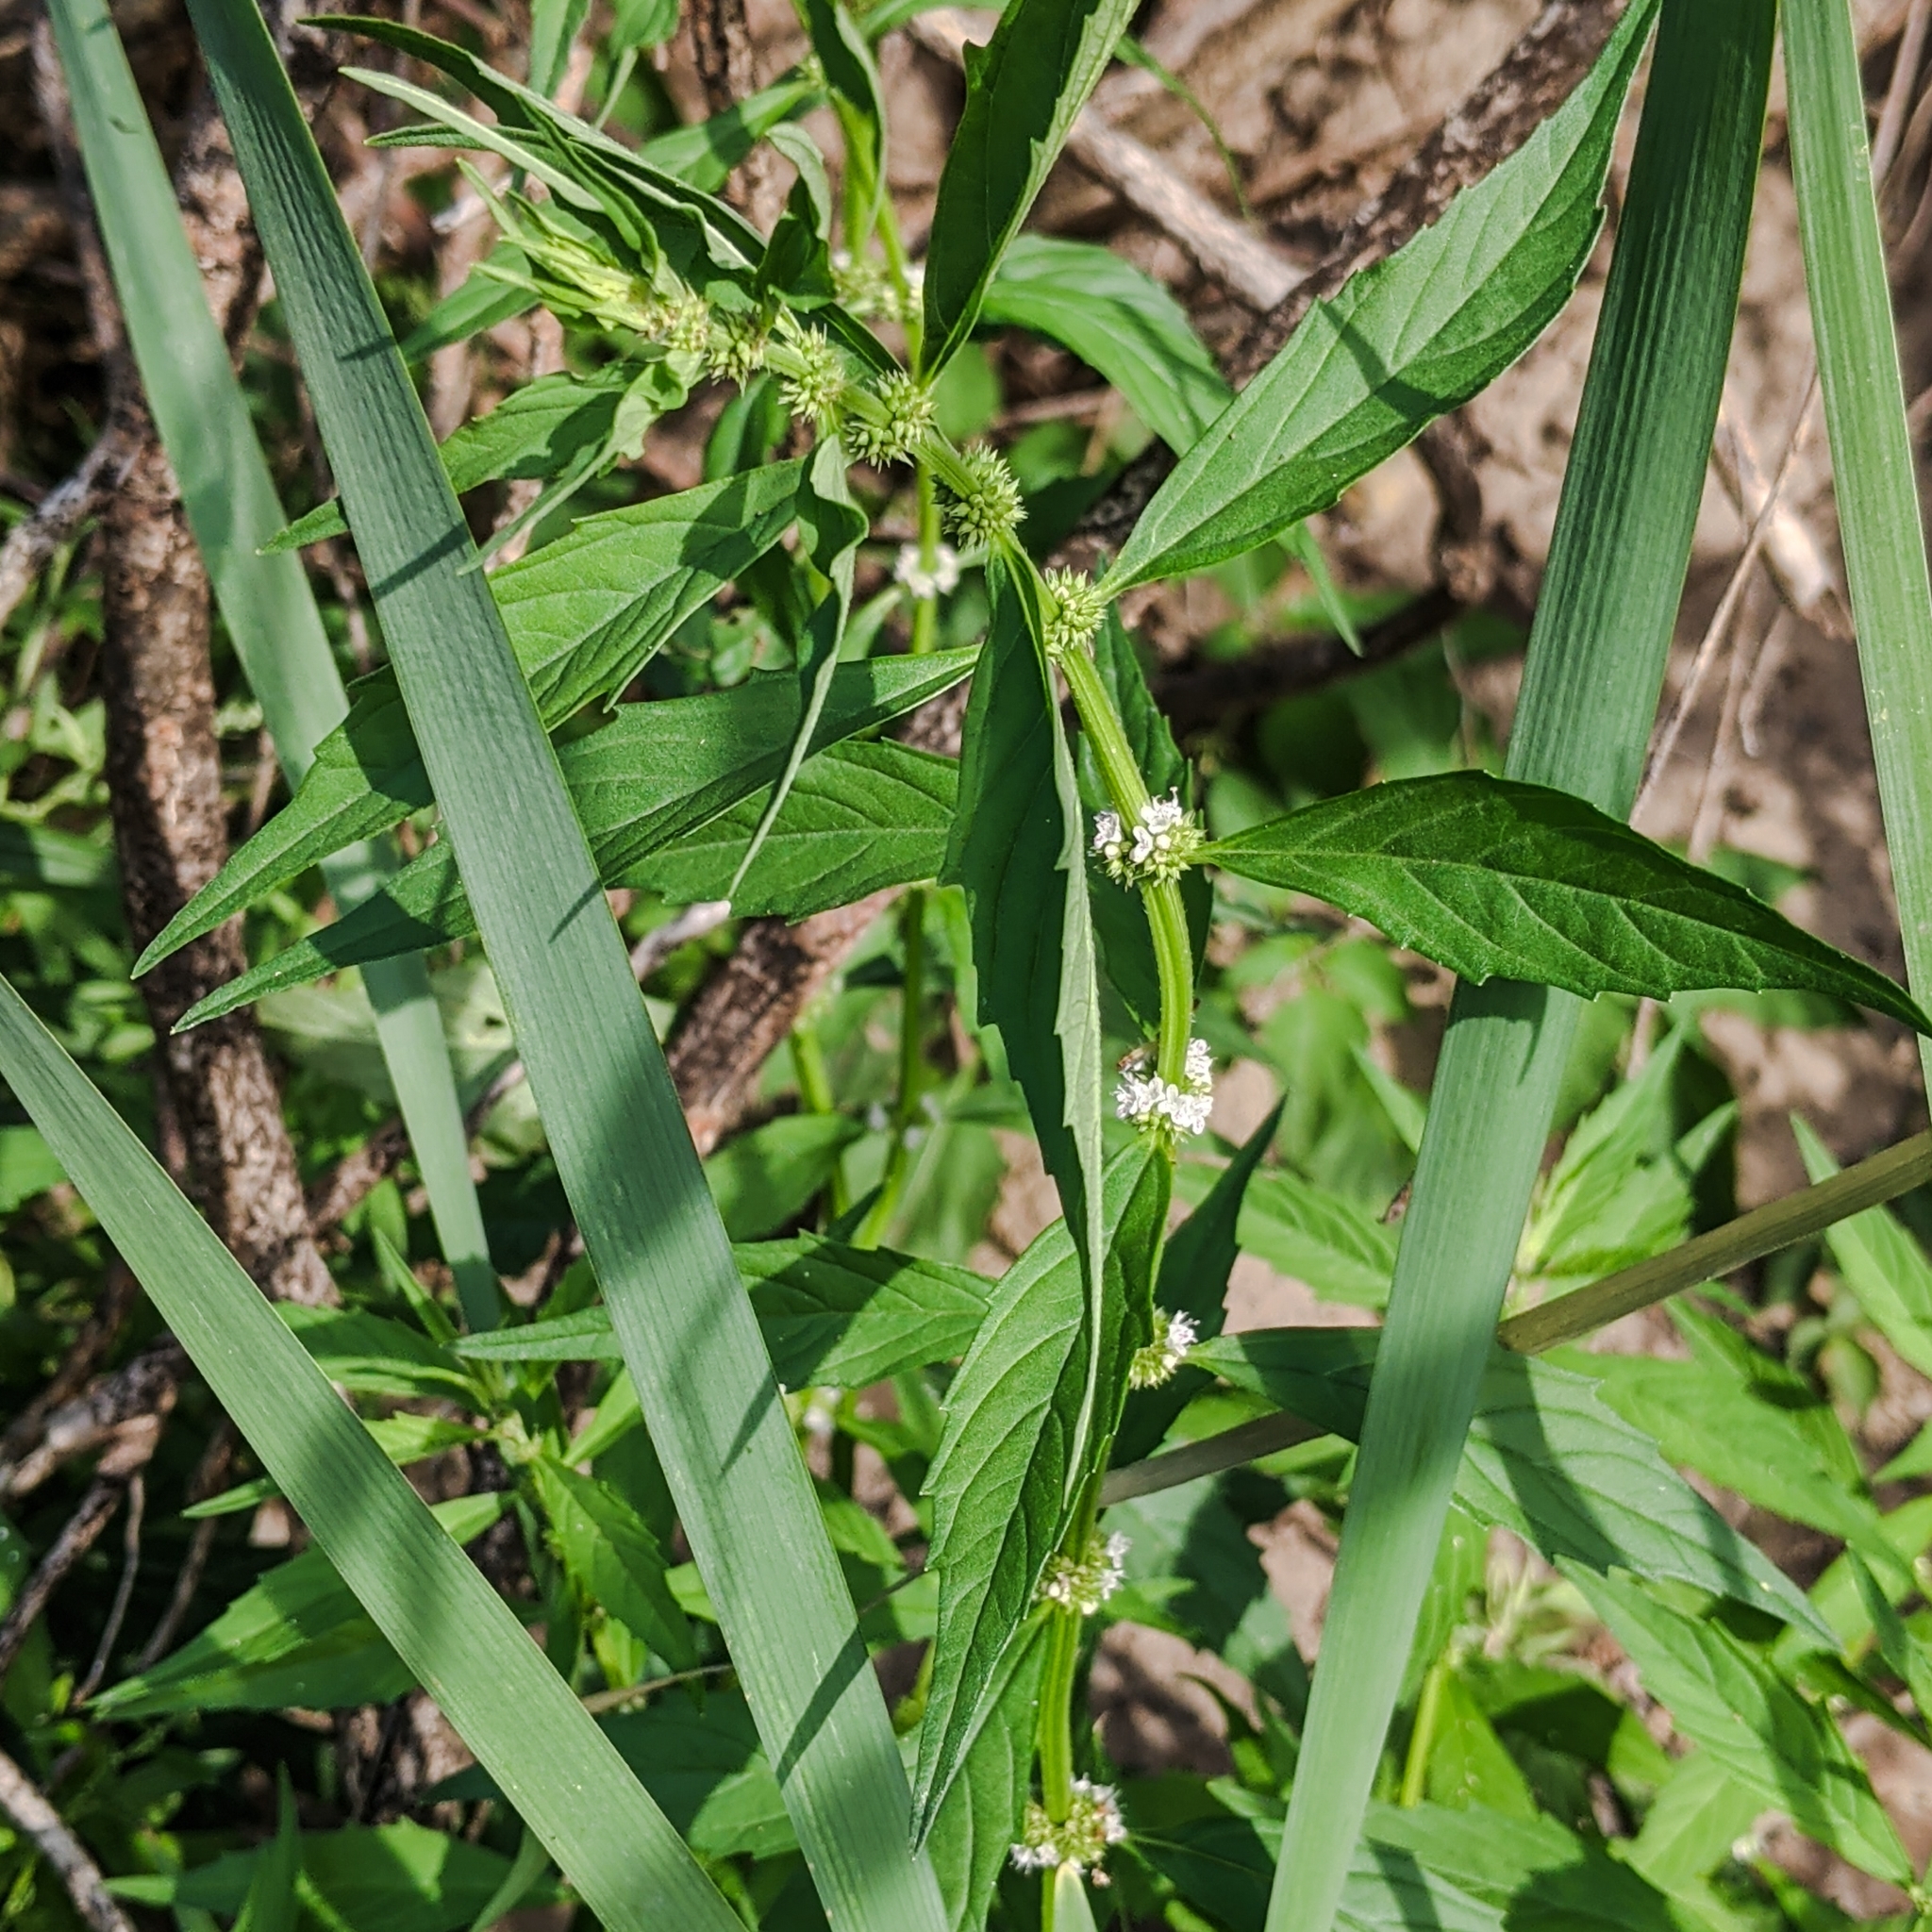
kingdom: Plantae
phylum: Tracheophyta
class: Magnoliopsida
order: Lamiales
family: Lamiaceae
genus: Lycopus
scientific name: Lycopus americanus
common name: American bugleweed
